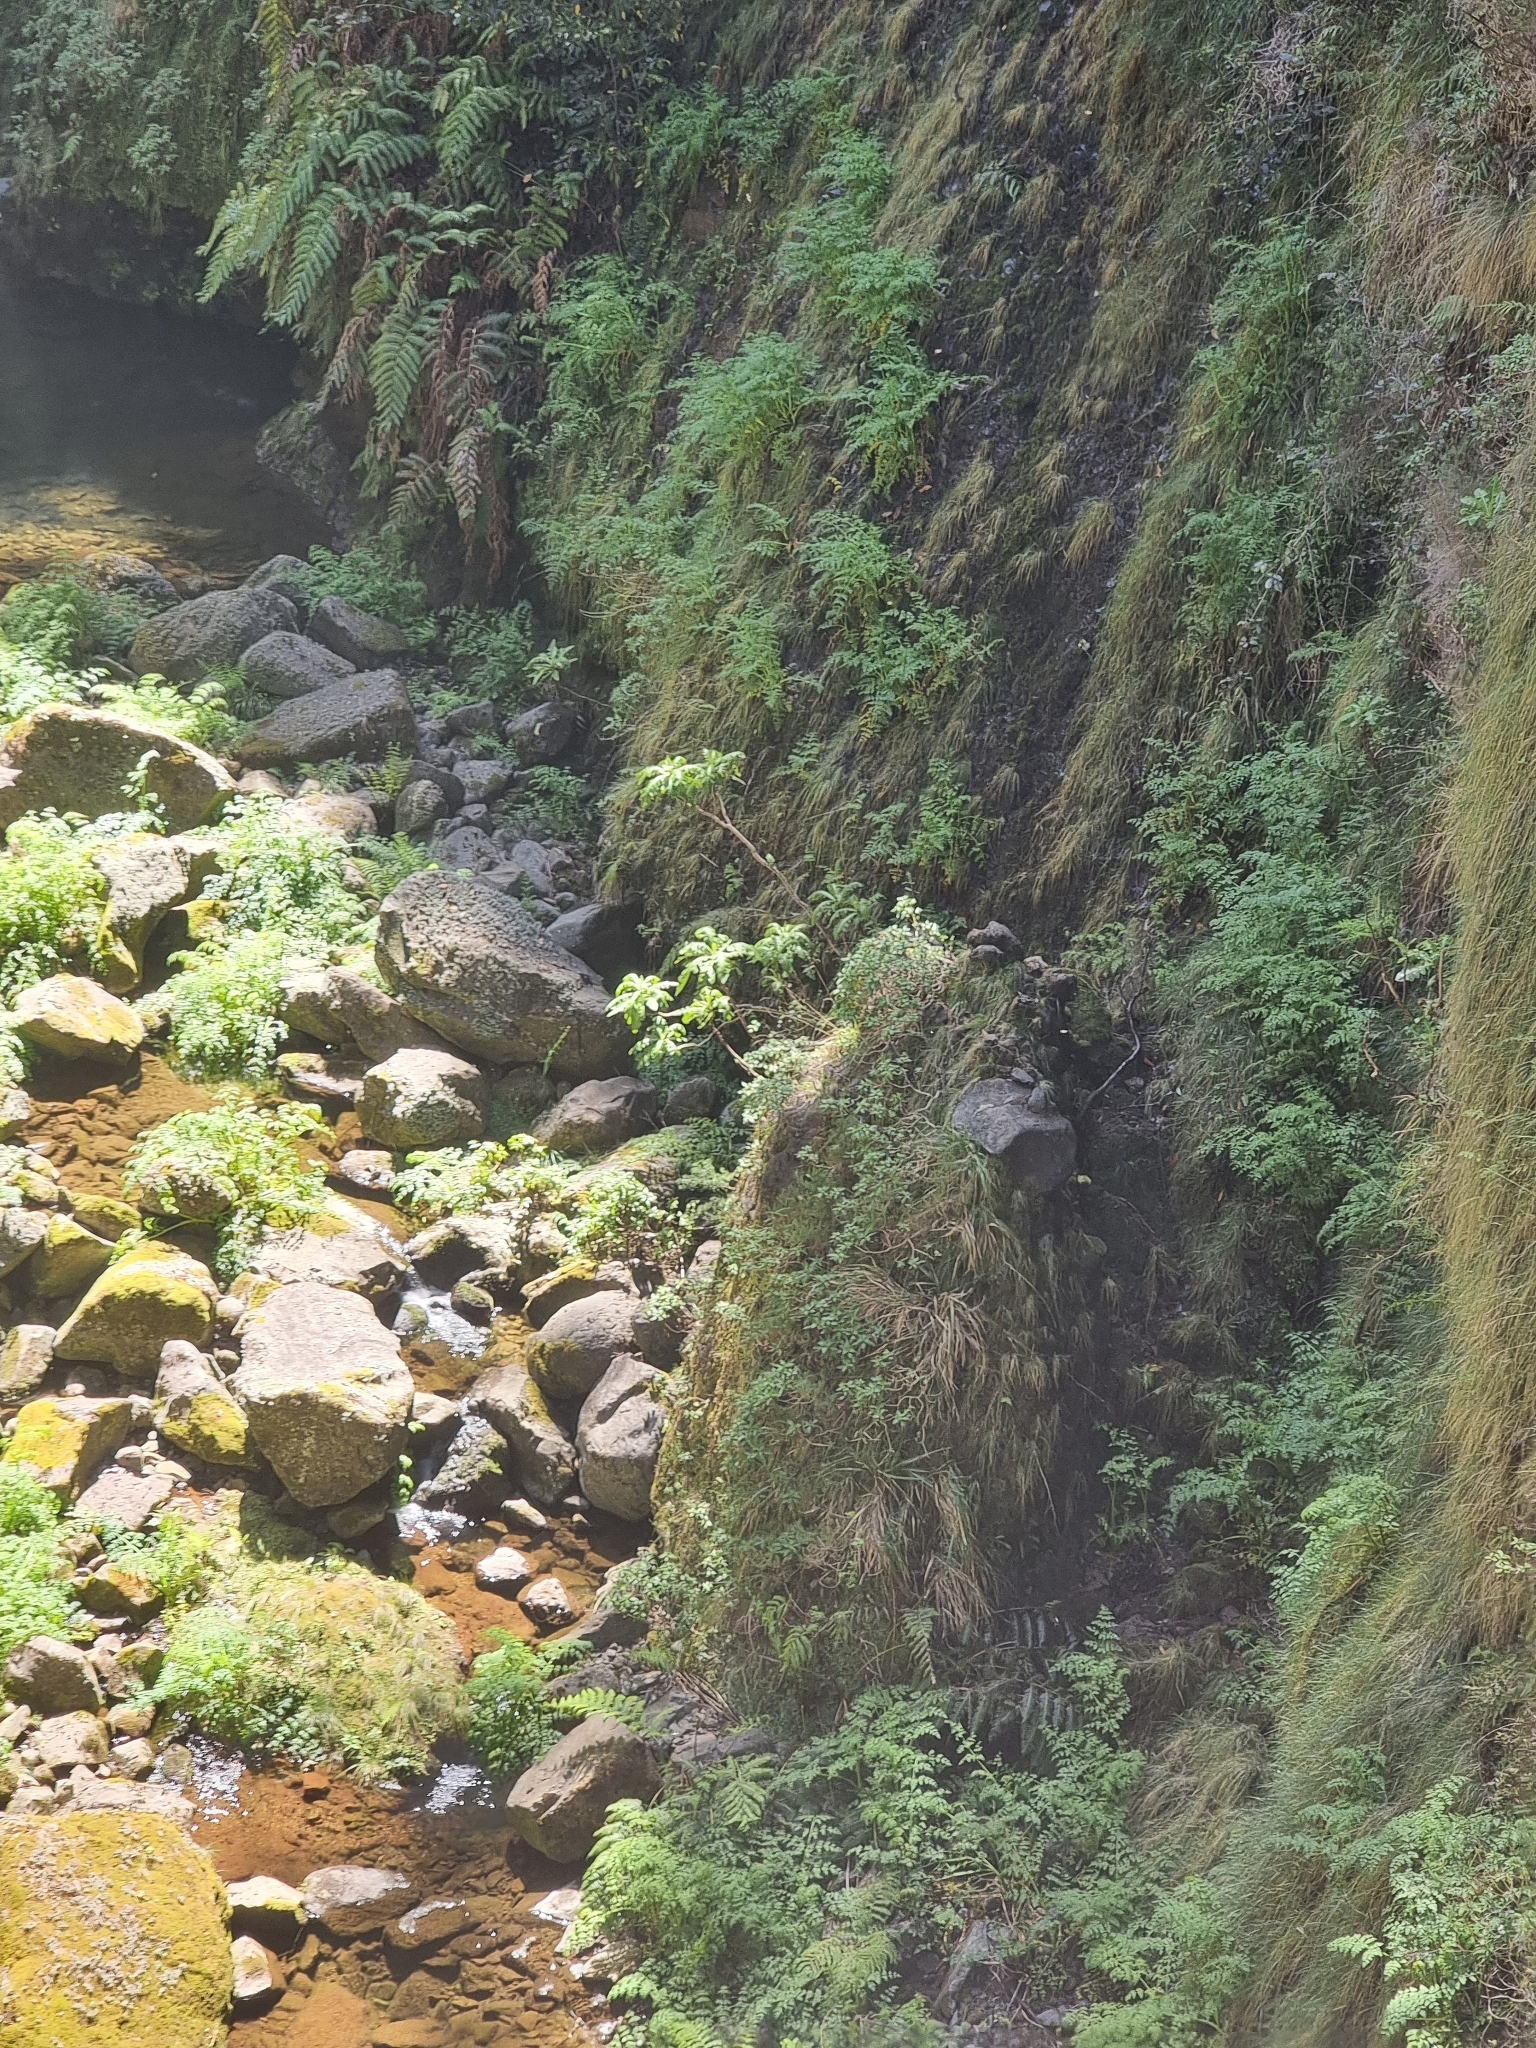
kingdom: Plantae
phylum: Tracheophyta
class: Magnoliopsida
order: Asterales
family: Asteraceae
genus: Sonchus
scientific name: Sonchus fruticosus
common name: Shrubby sow-thistle
